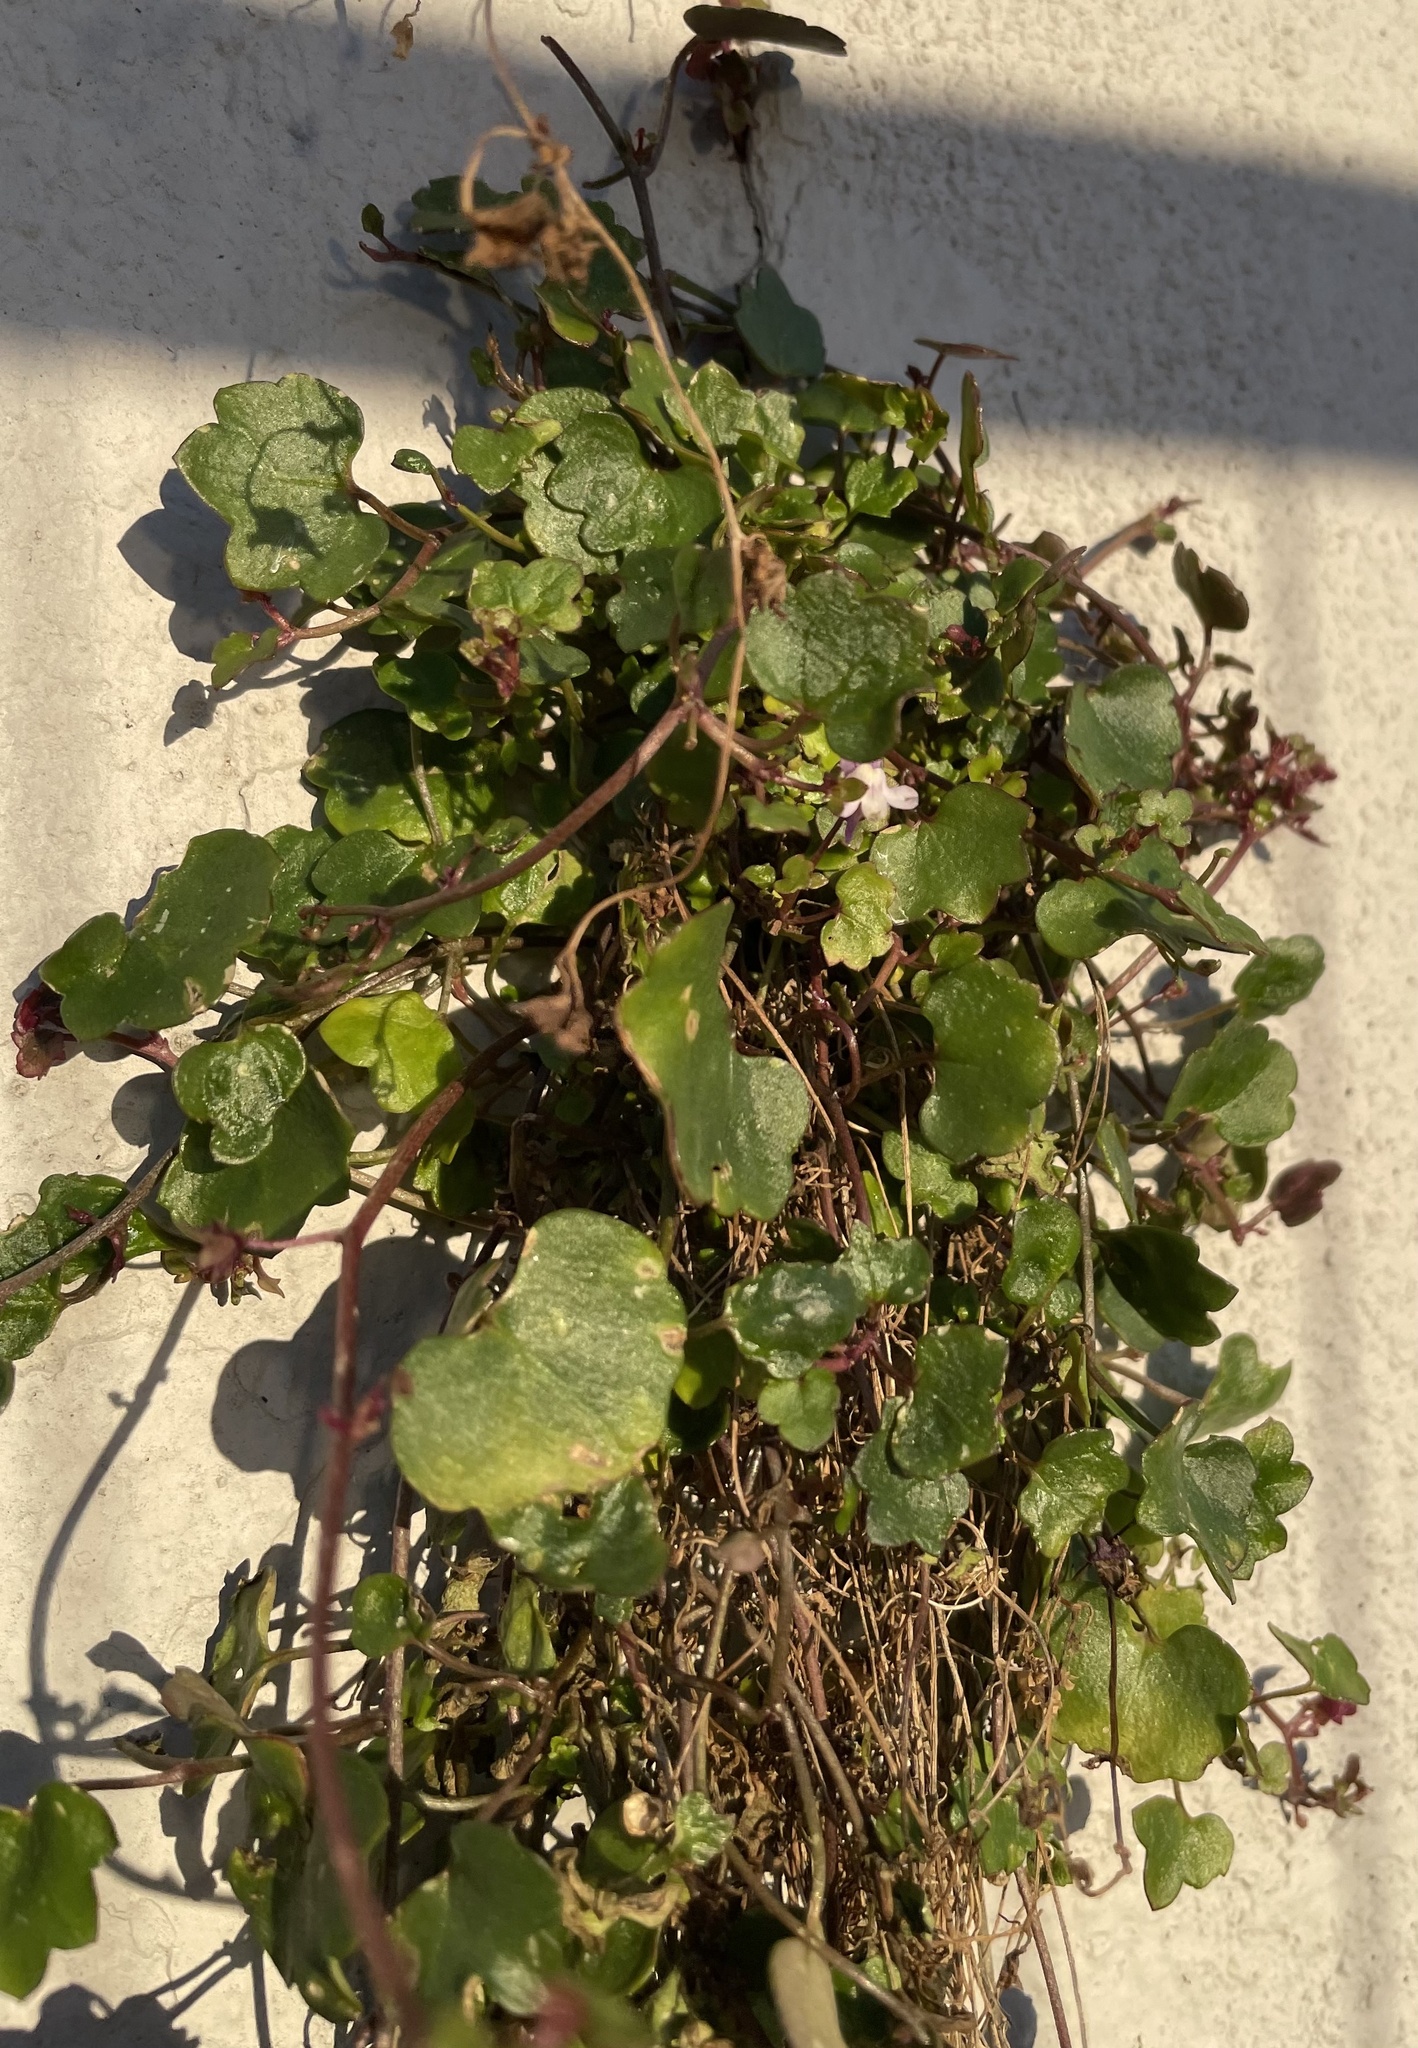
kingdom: Plantae
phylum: Tracheophyta
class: Magnoliopsida
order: Lamiales
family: Plantaginaceae
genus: Cymbalaria
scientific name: Cymbalaria muralis
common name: Ivy-leaved toadflax
